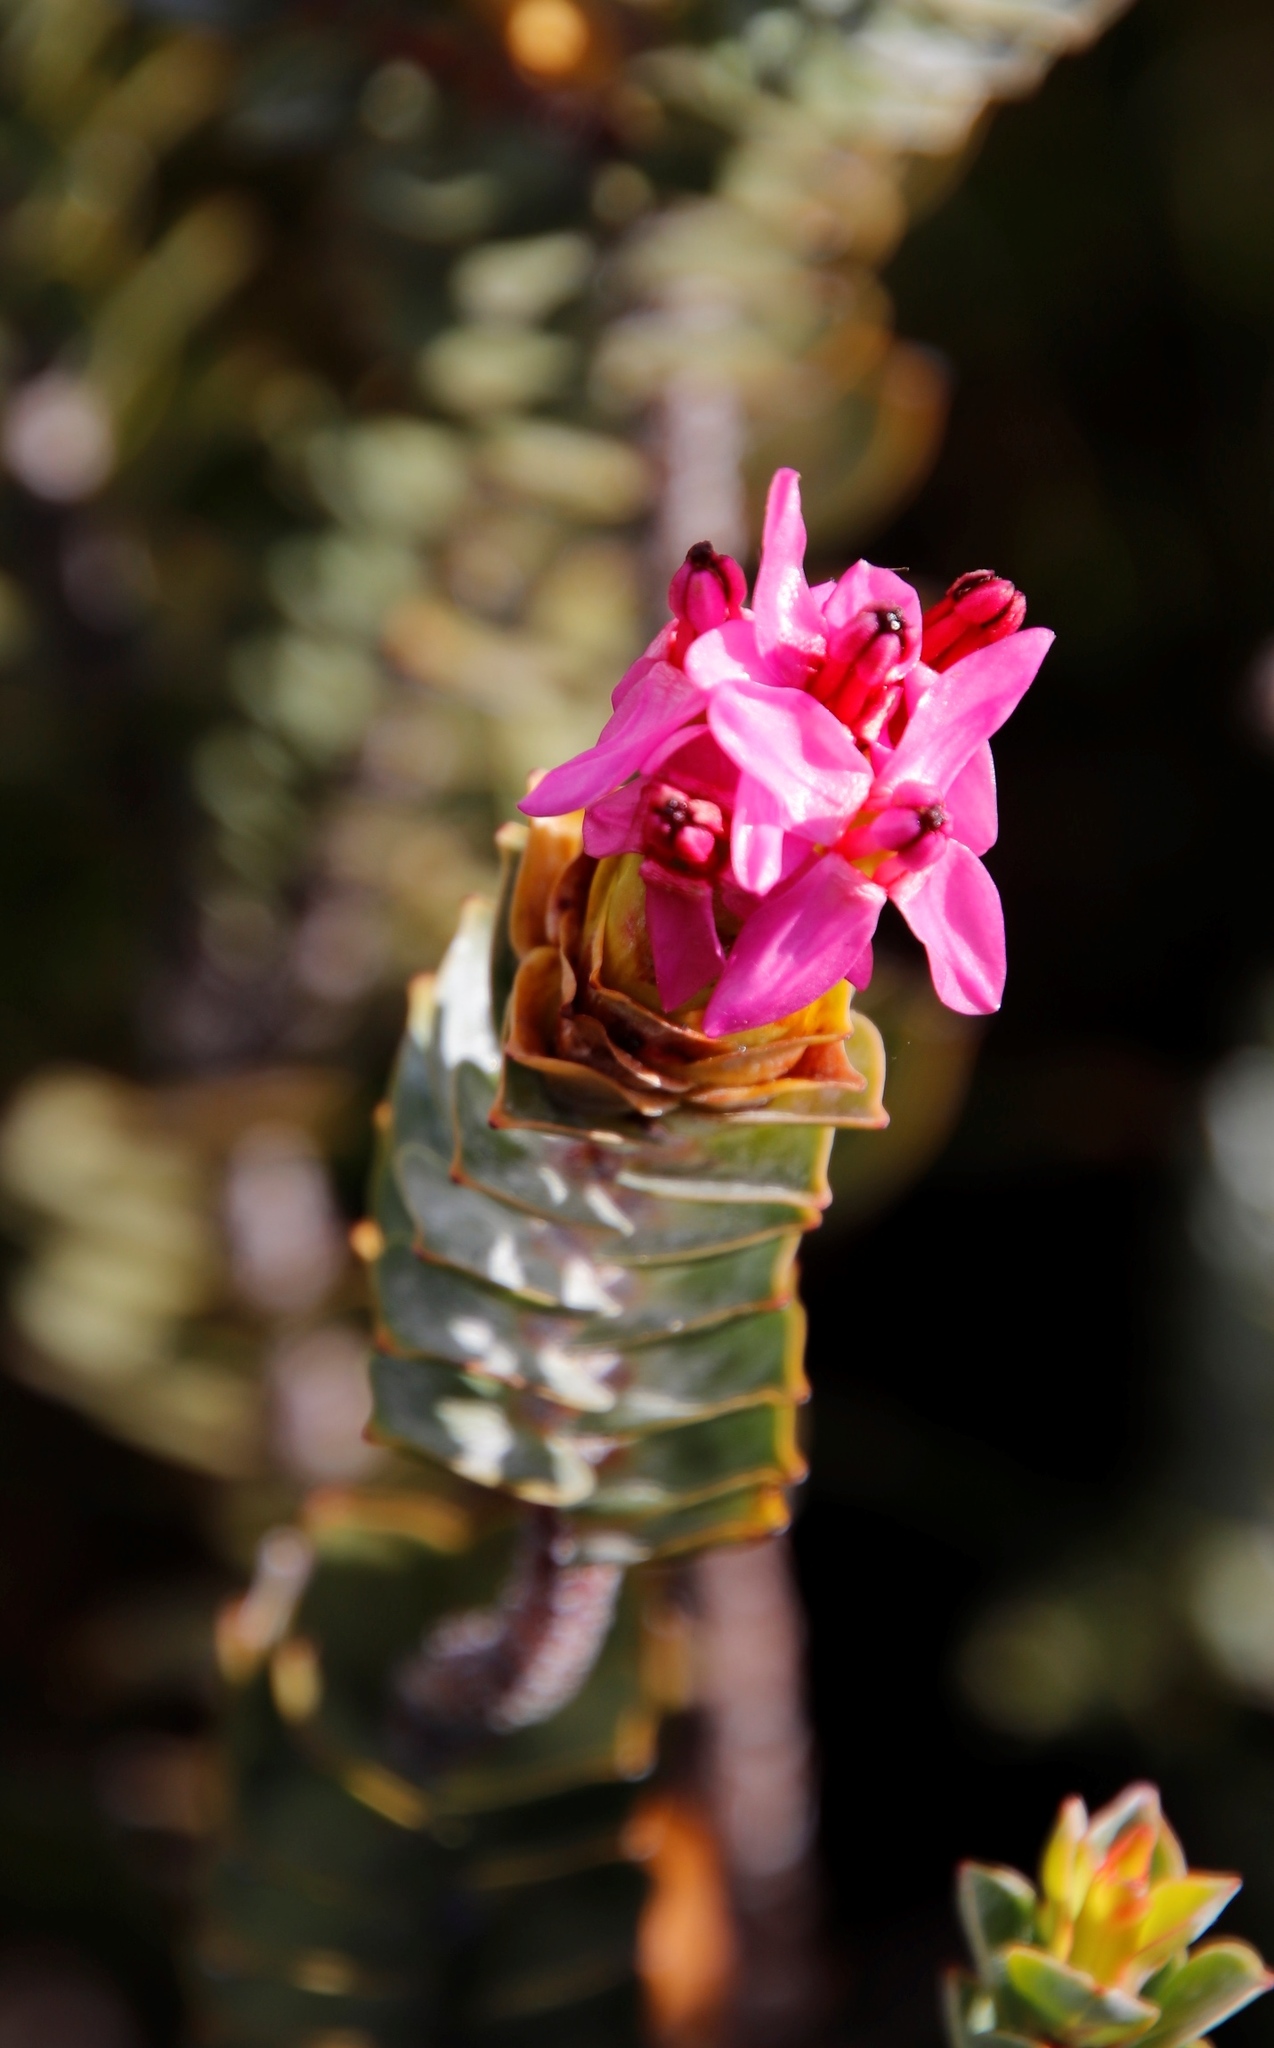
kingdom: Plantae
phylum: Tracheophyta
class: Magnoliopsida
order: Myrtales
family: Penaeaceae
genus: Saltera
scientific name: Saltera sarcocolla
